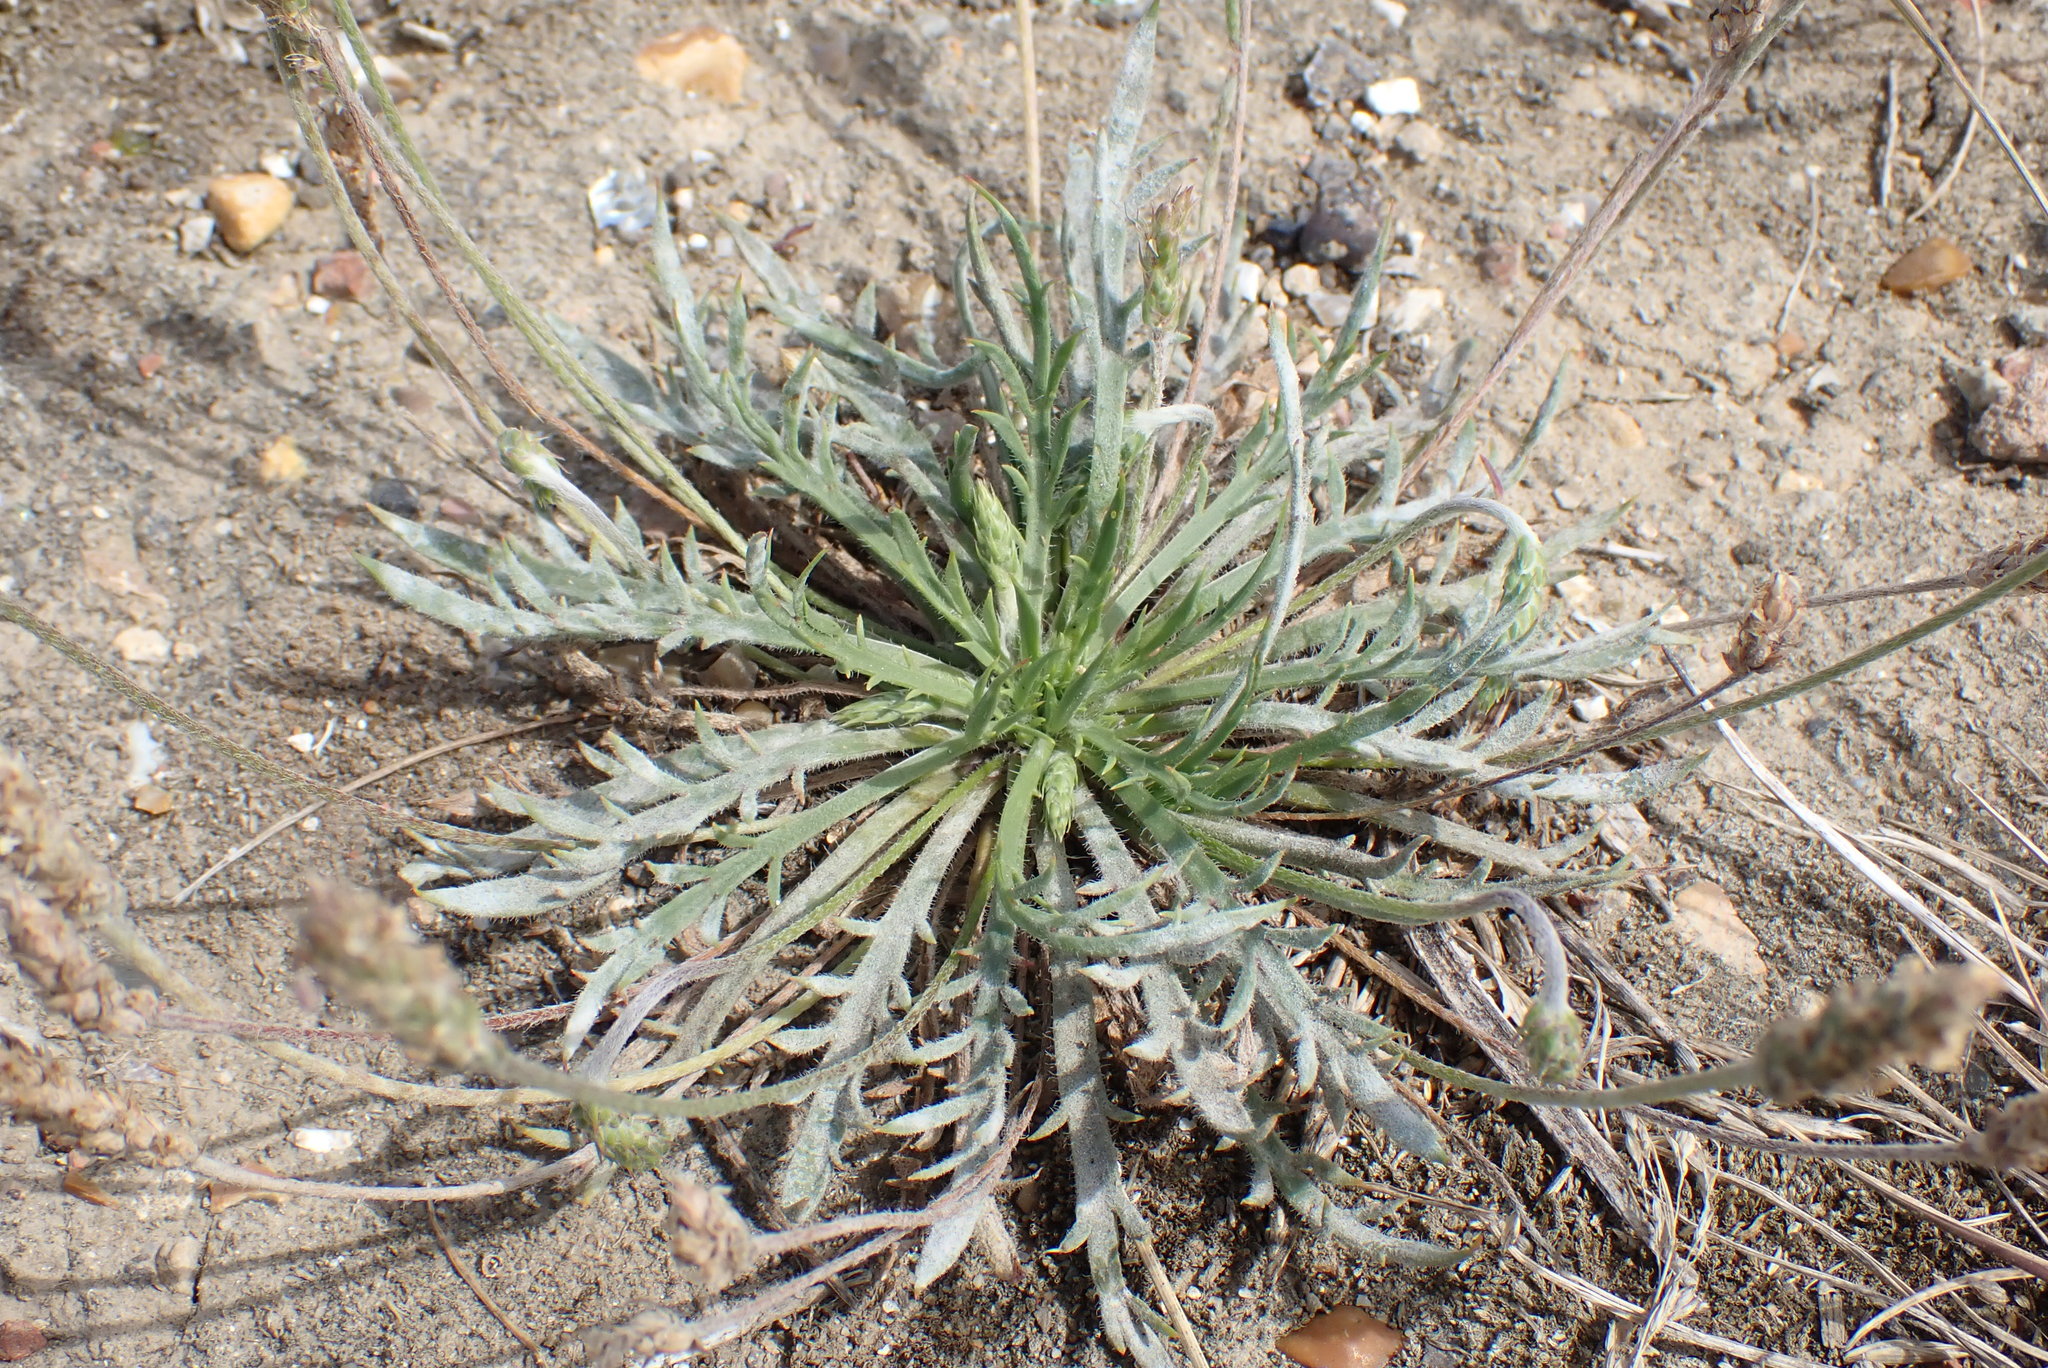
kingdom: Plantae
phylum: Tracheophyta
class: Magnoliopsida
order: Lamiales
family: Plantaginaceae
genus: Plantago
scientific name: Plantago coronopus
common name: Buck's-horn plantain
